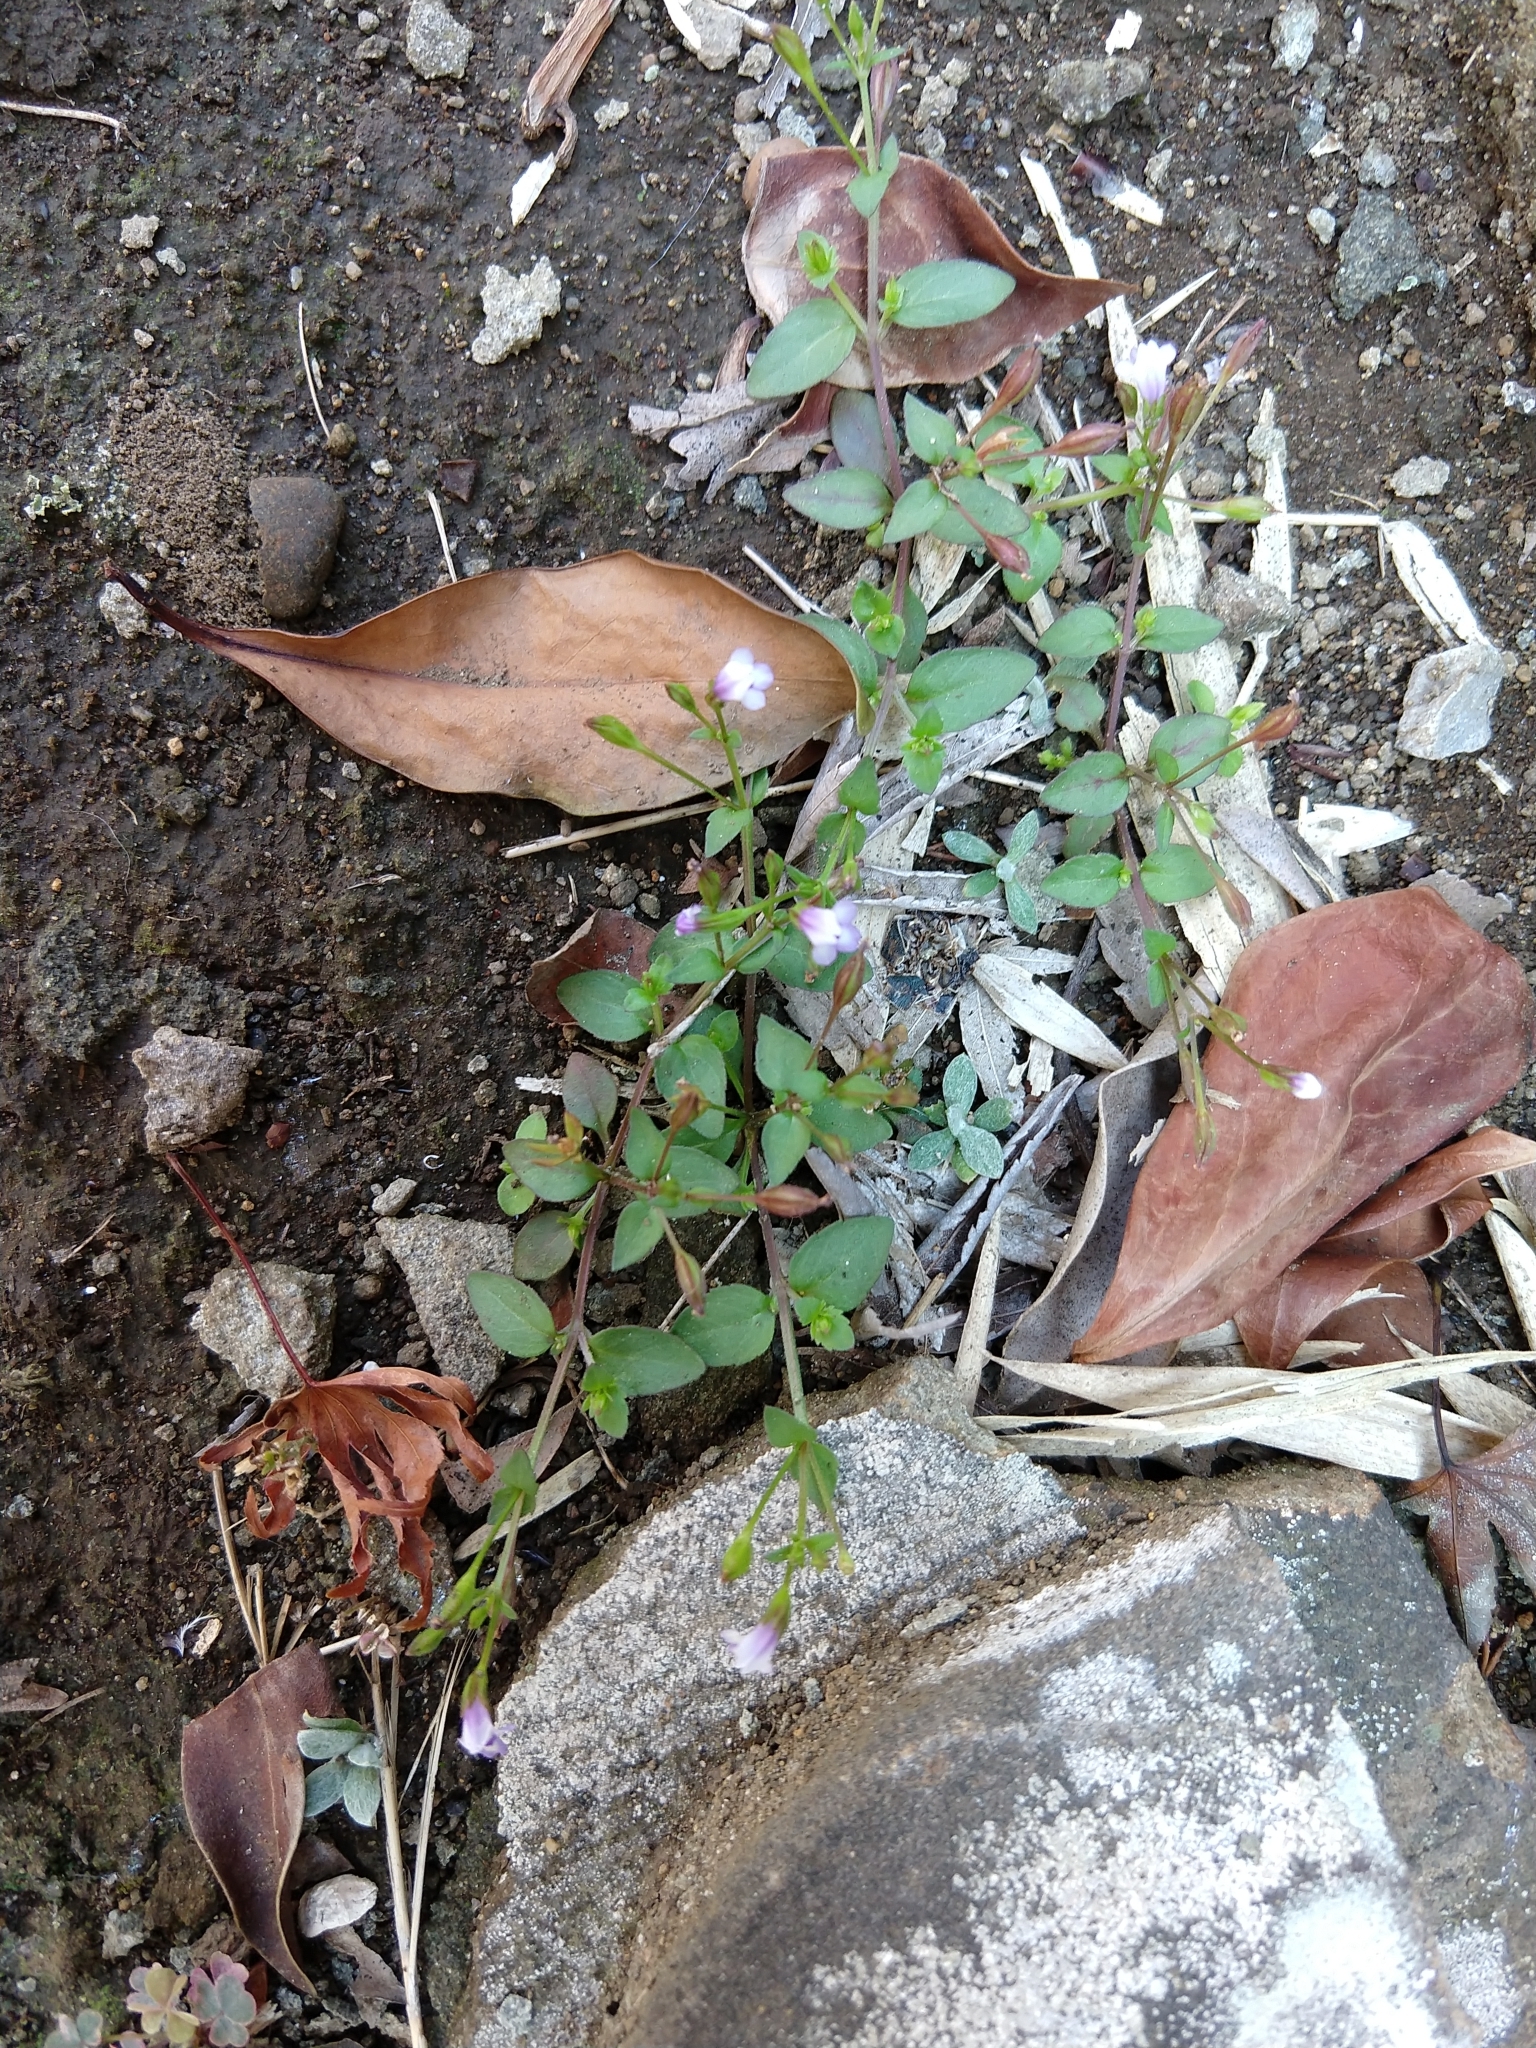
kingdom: Plantae
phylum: Tracheophyta
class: Magnoliopsida
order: Lamiales
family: Linderniaceae
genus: Torenia
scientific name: Torenia crustacea
